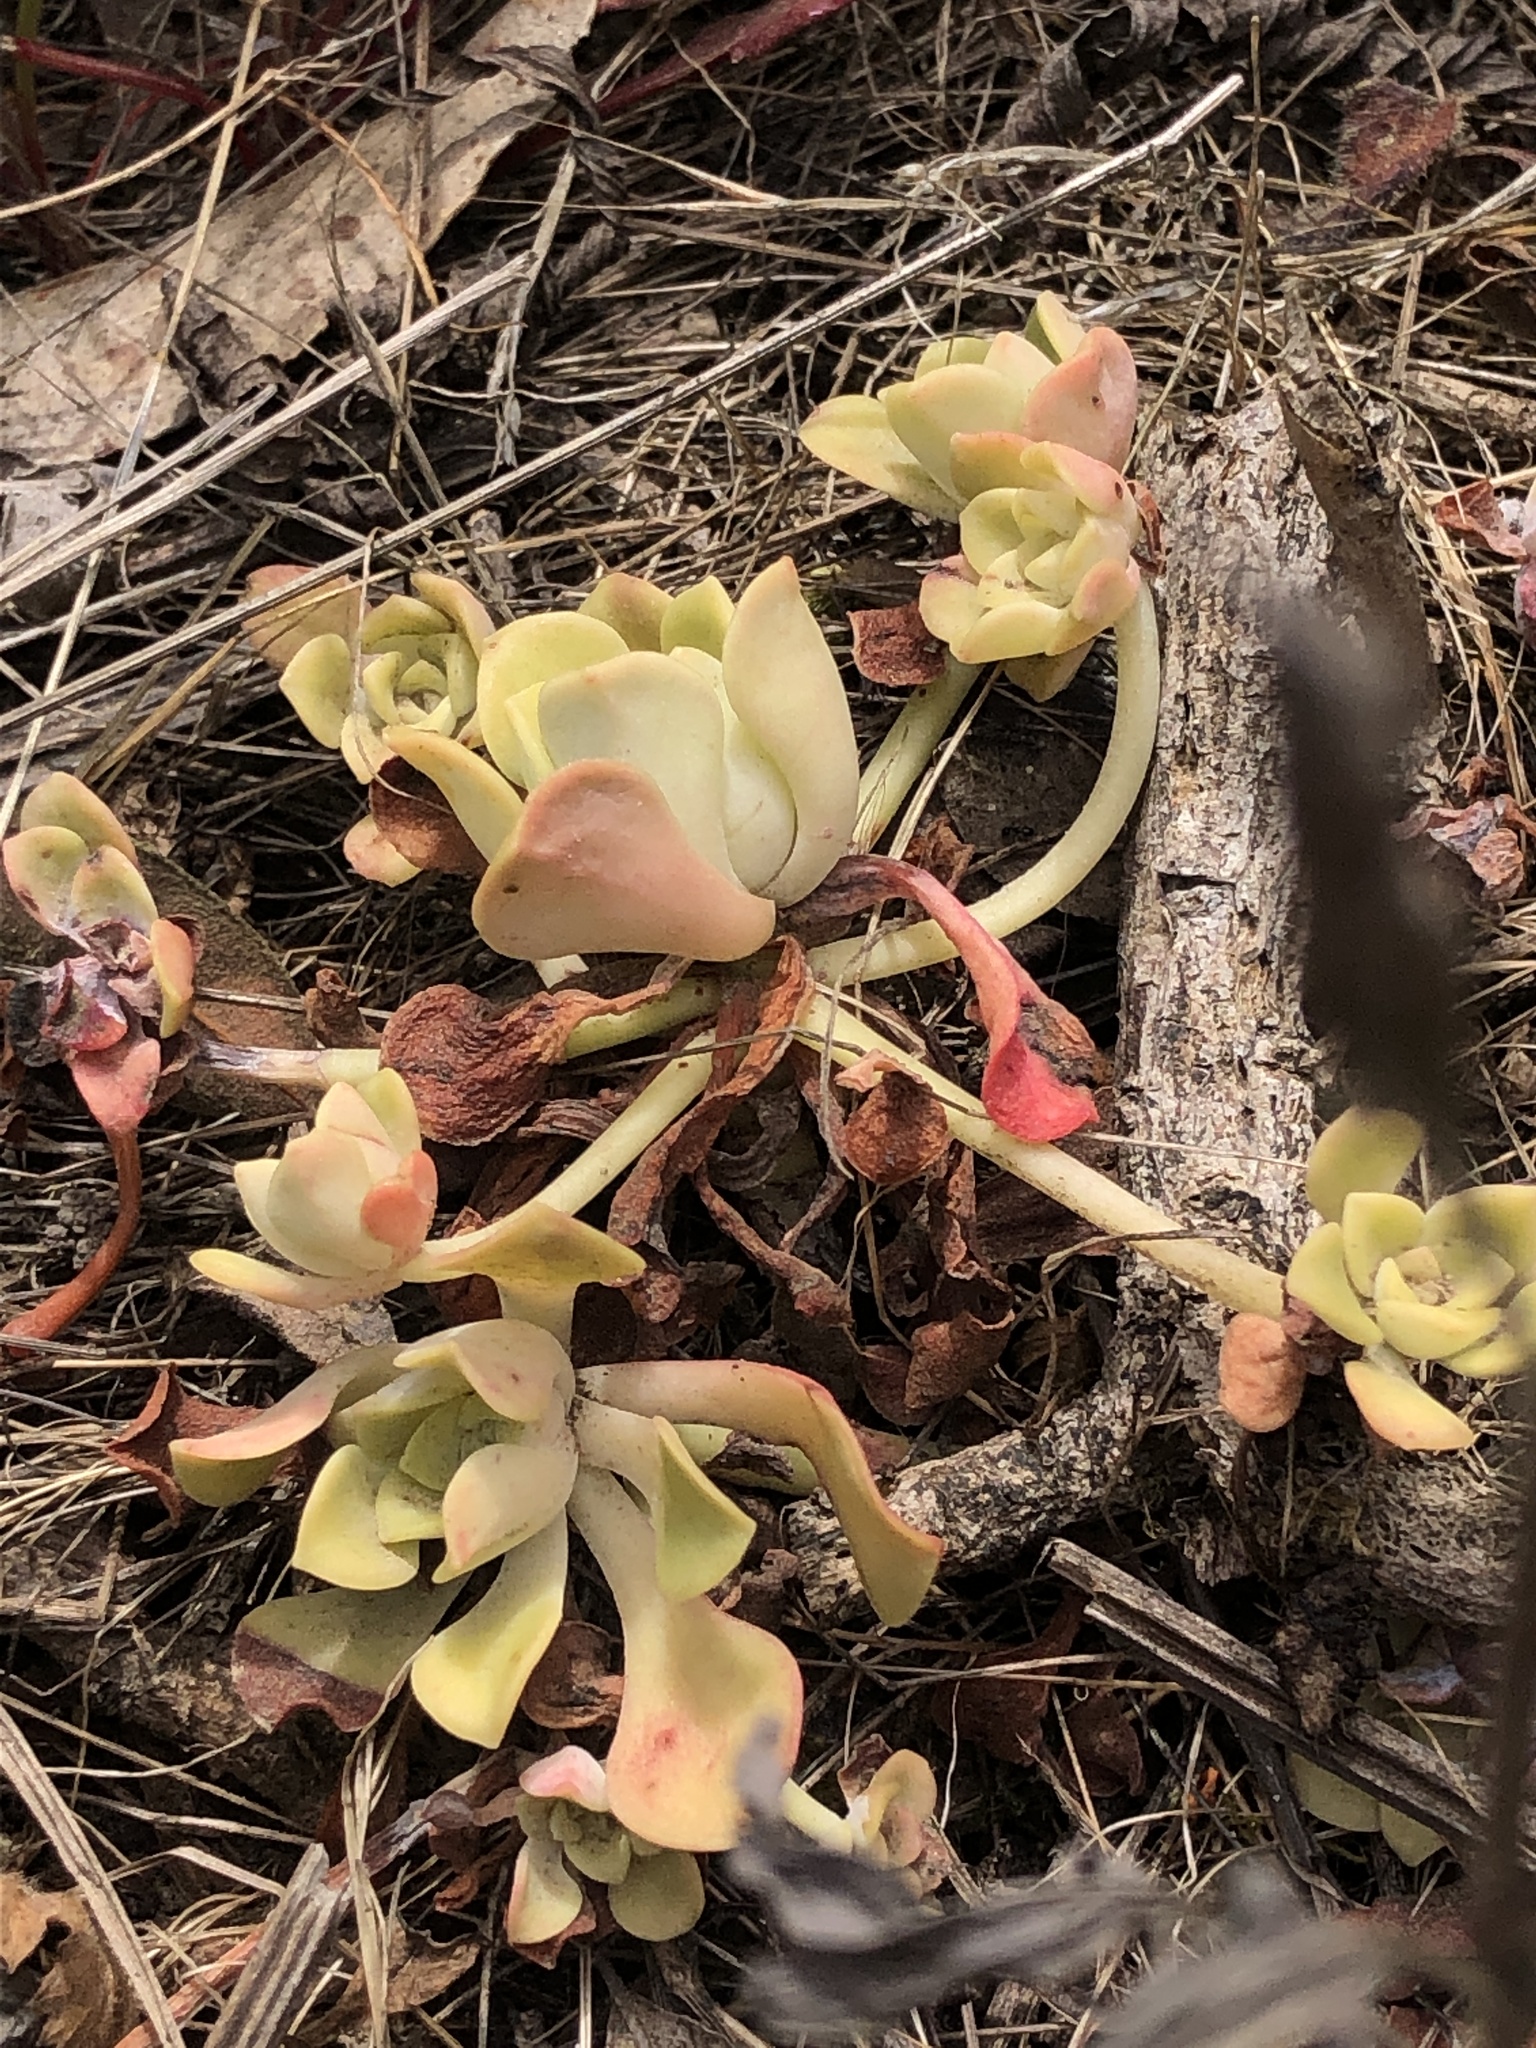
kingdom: Plantae
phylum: Tracheophyta
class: Magnoliopsida
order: Saxifragales
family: Crassulaceae
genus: Sedum
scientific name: Sedum spathulifolium
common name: Colorado stonecrop
